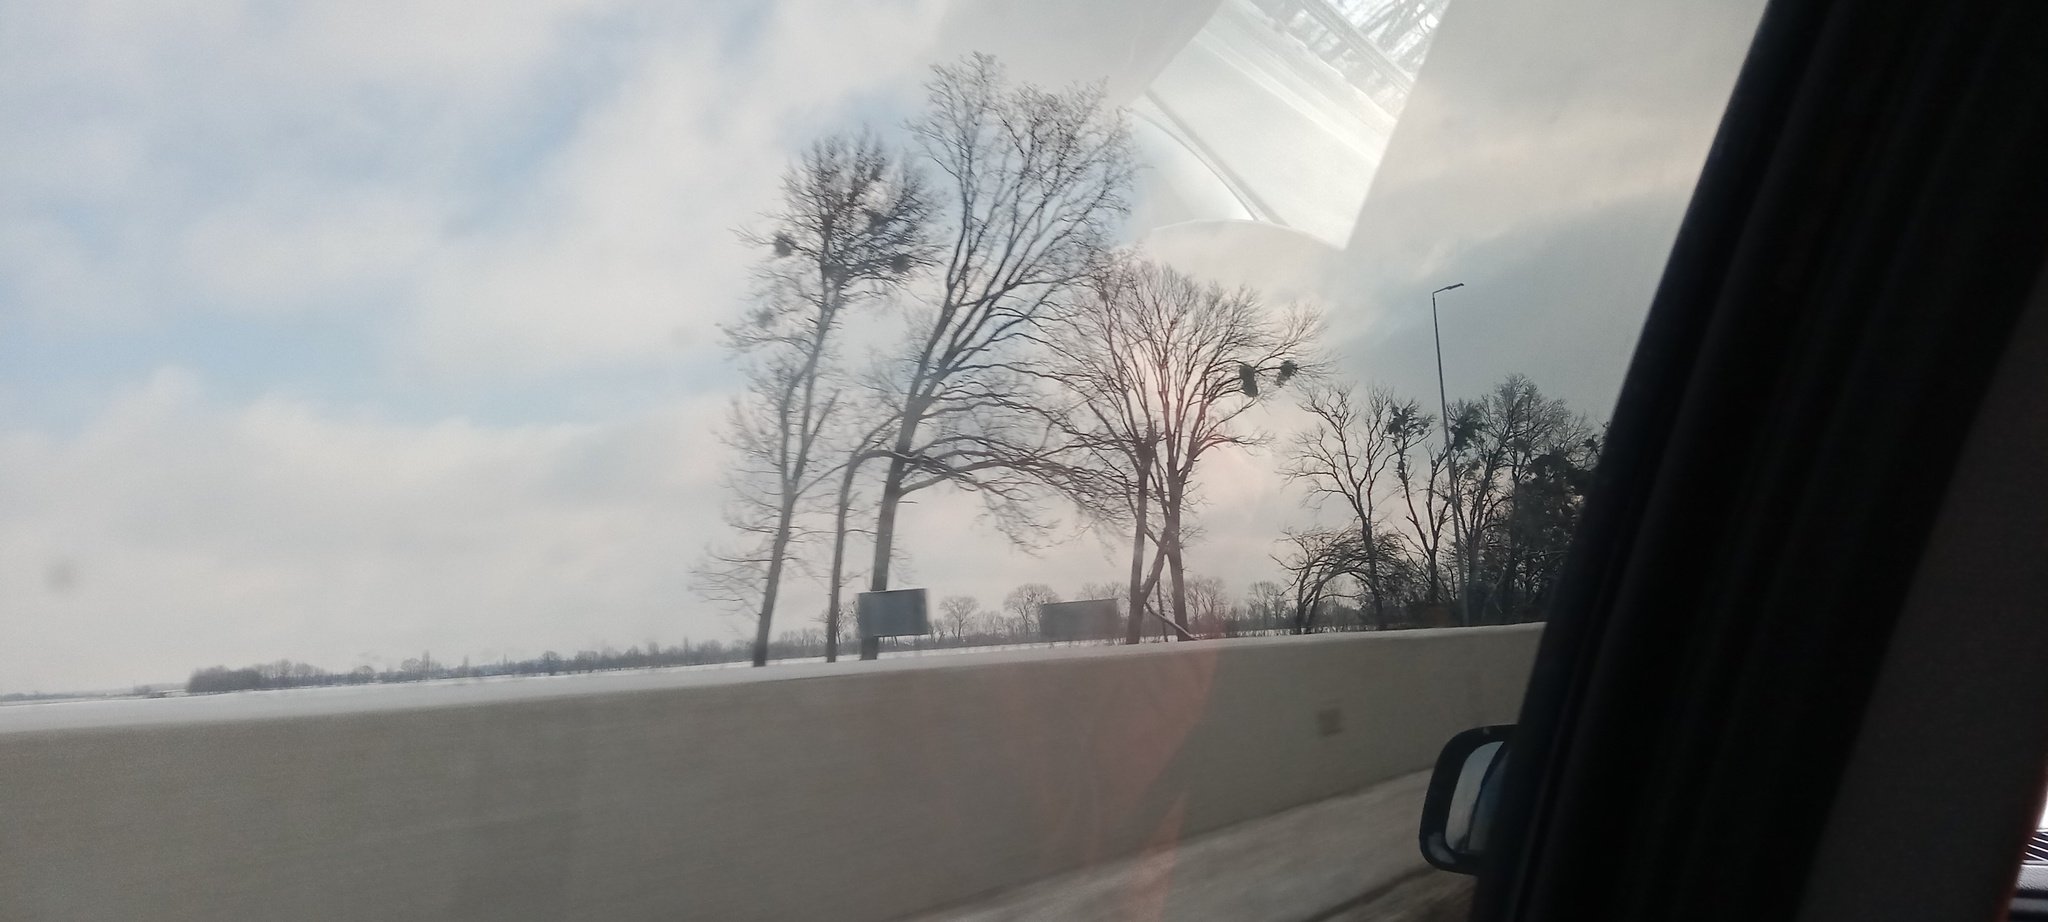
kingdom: Plantae
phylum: Tracheophyta
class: Magnoliopsida
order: Santalales
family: Viscaceae
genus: Viscum
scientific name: Viscum album
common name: Mistletoe
